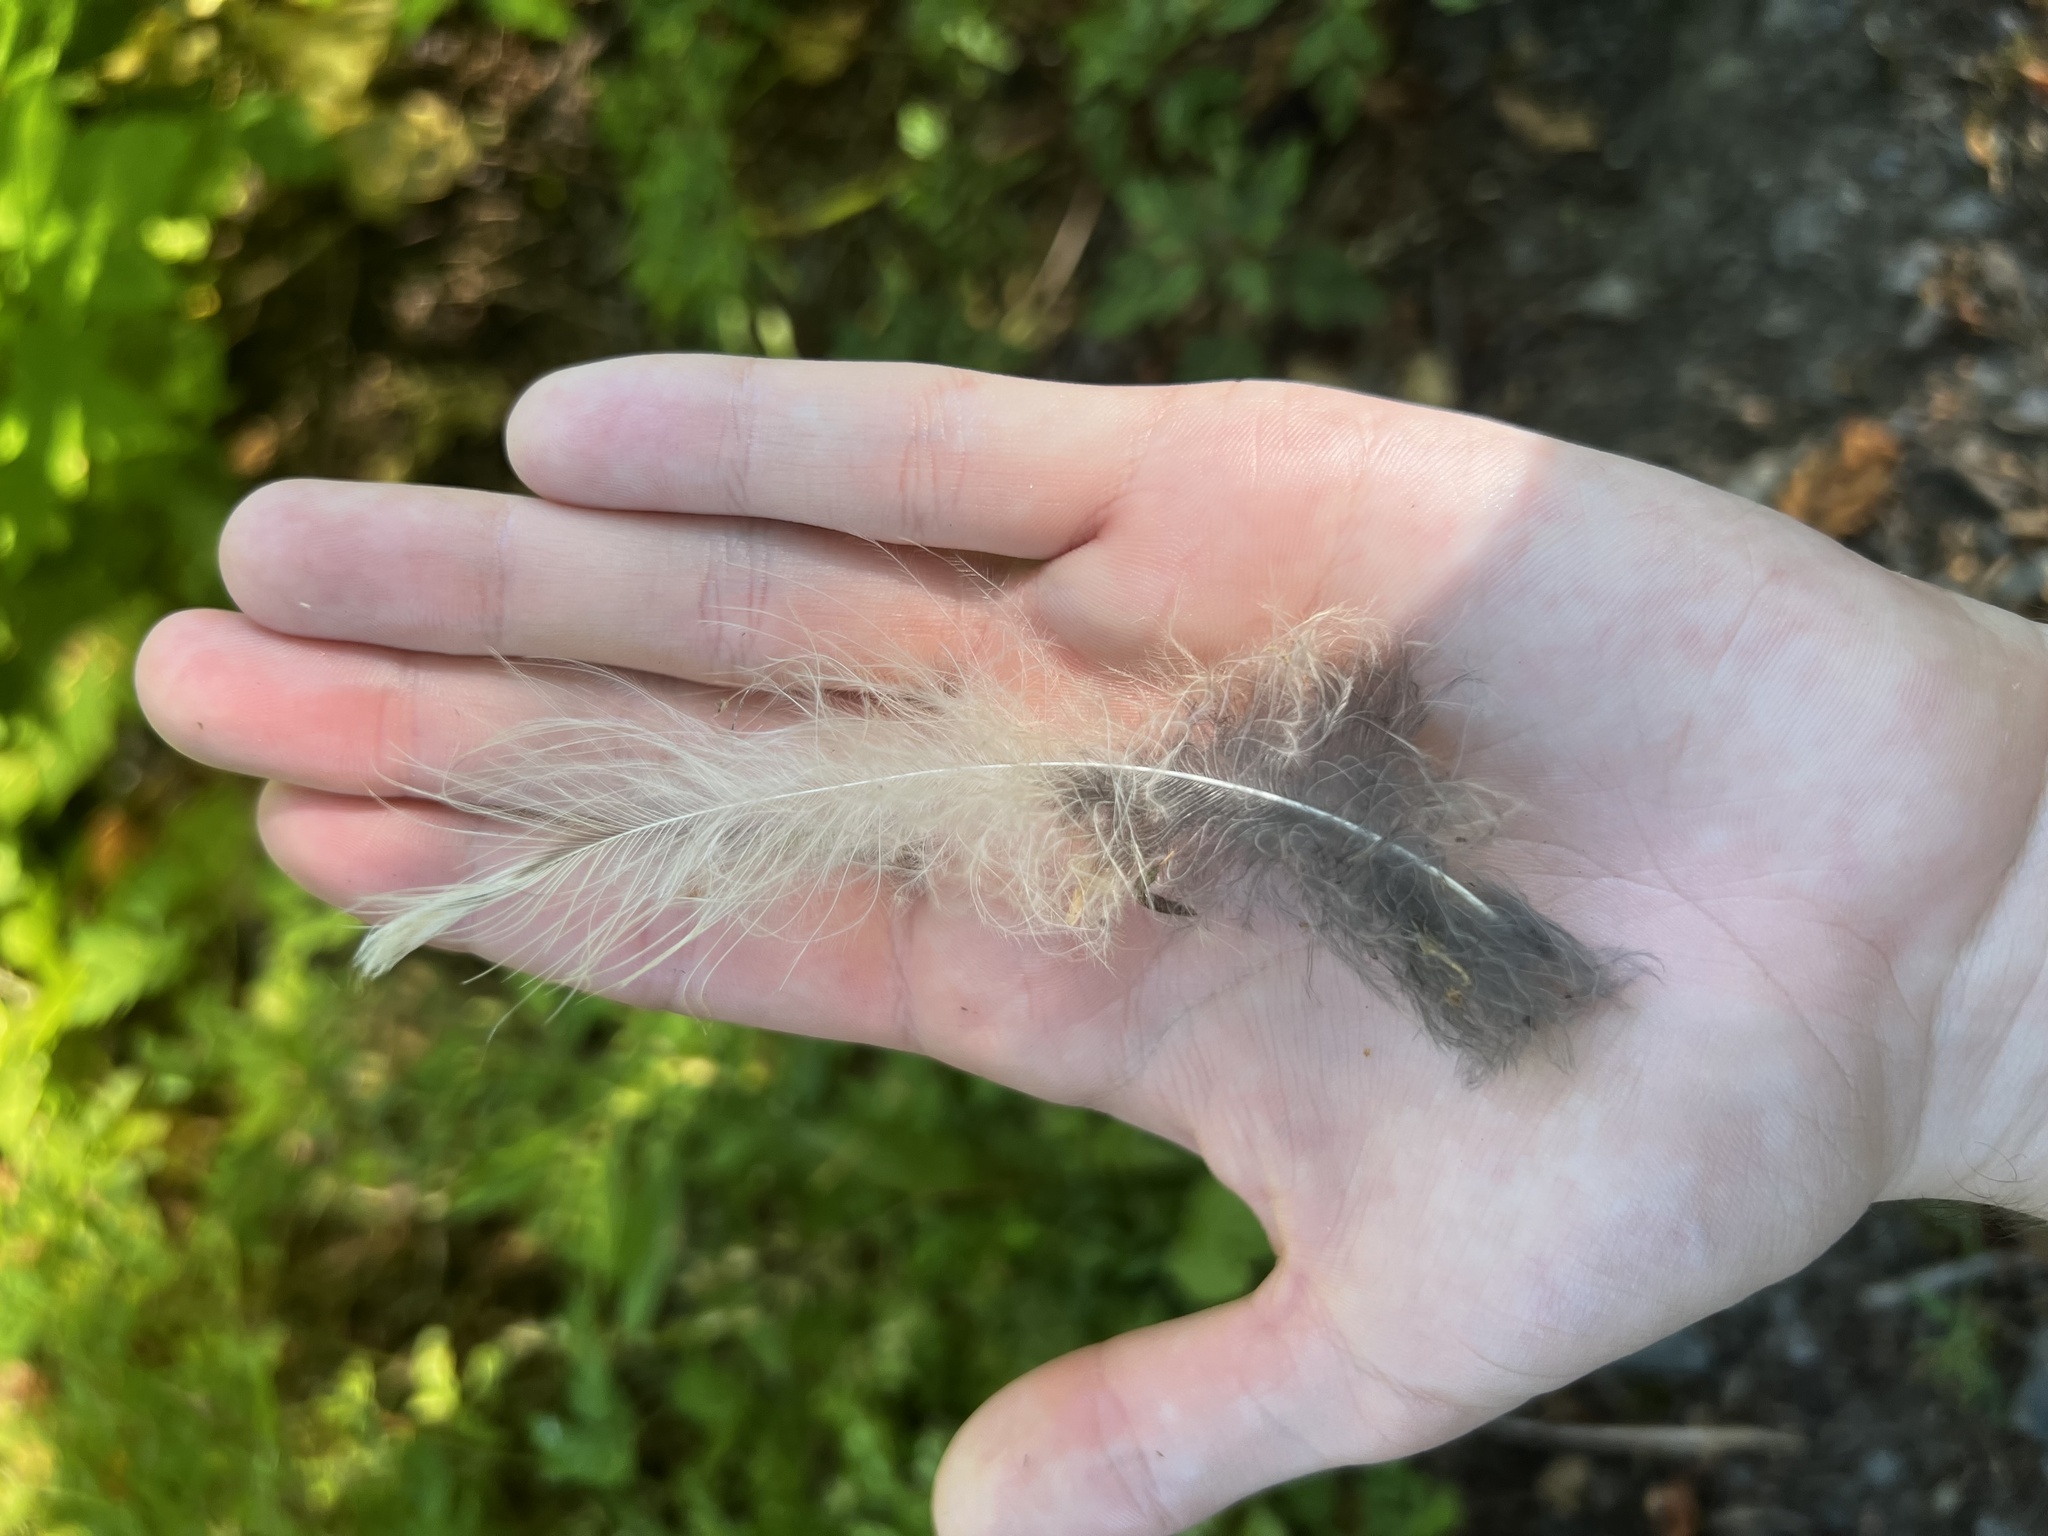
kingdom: Animalia
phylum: Chordata
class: Aves
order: Strigiformes
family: Strigidae
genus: Strix
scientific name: Strix varia
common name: Barred owl
